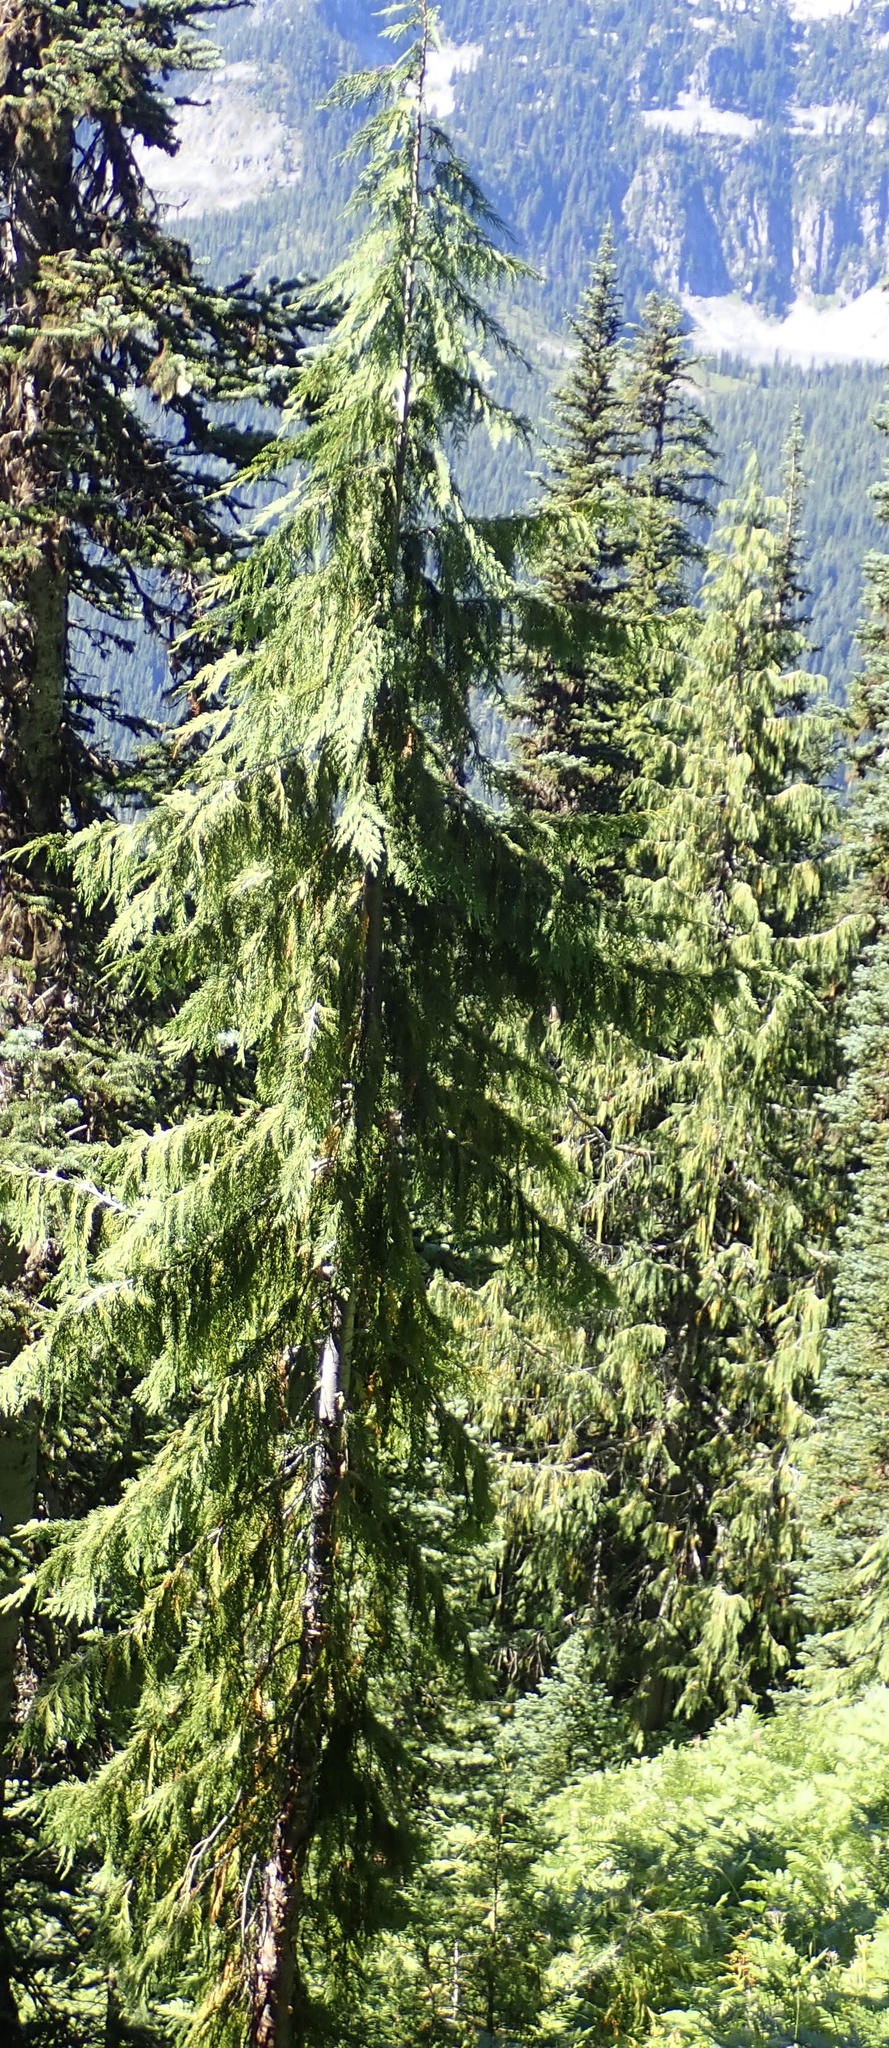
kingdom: Plantae
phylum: Tracheophyta
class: Pinopsida
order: Pinales
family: Cupressaceae
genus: Xanthocyparis
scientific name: Xanthocyparis nootkatensis
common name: Nootka cypress
